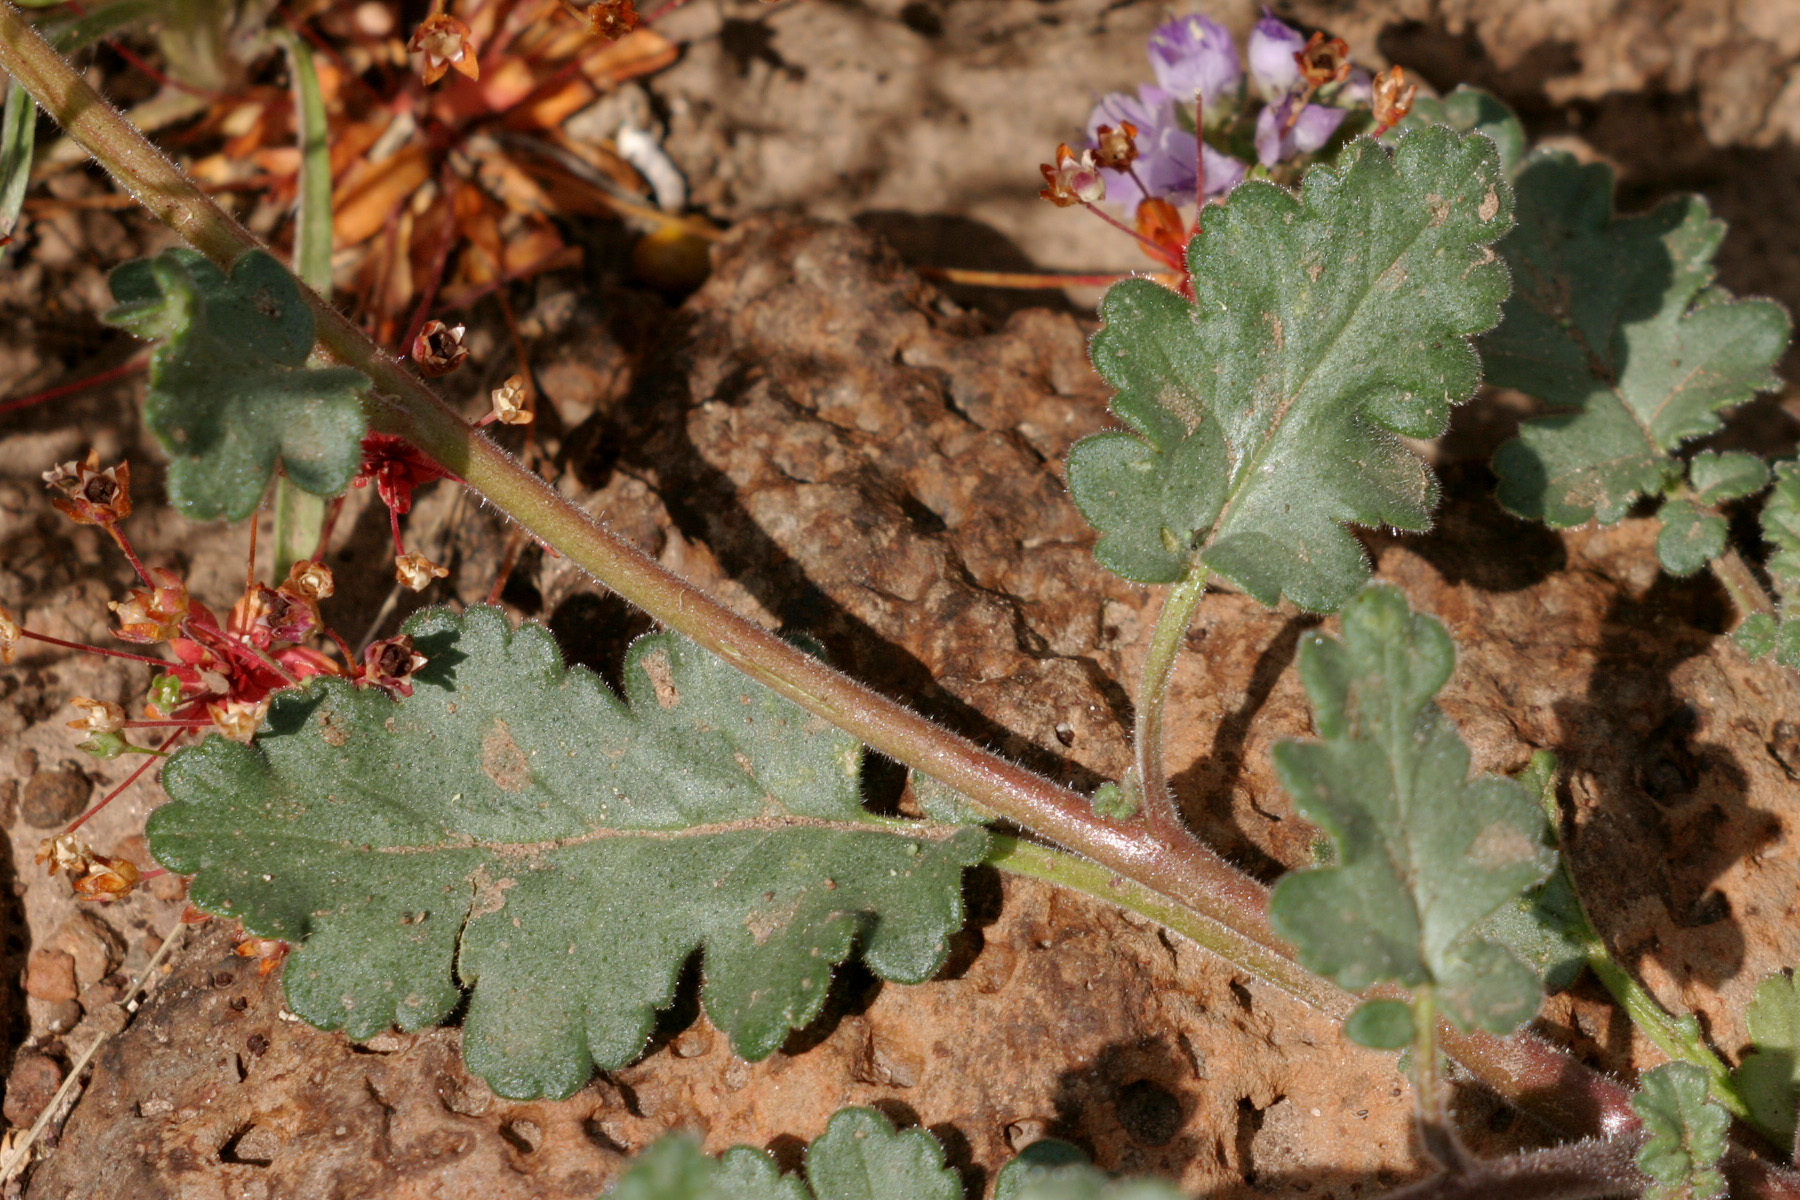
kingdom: Plantae
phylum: Tracheophyta
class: Magnoliopsida
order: Boraginales
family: Hydrophyllaceae
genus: Phacelia
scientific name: Phacelia bombycina
